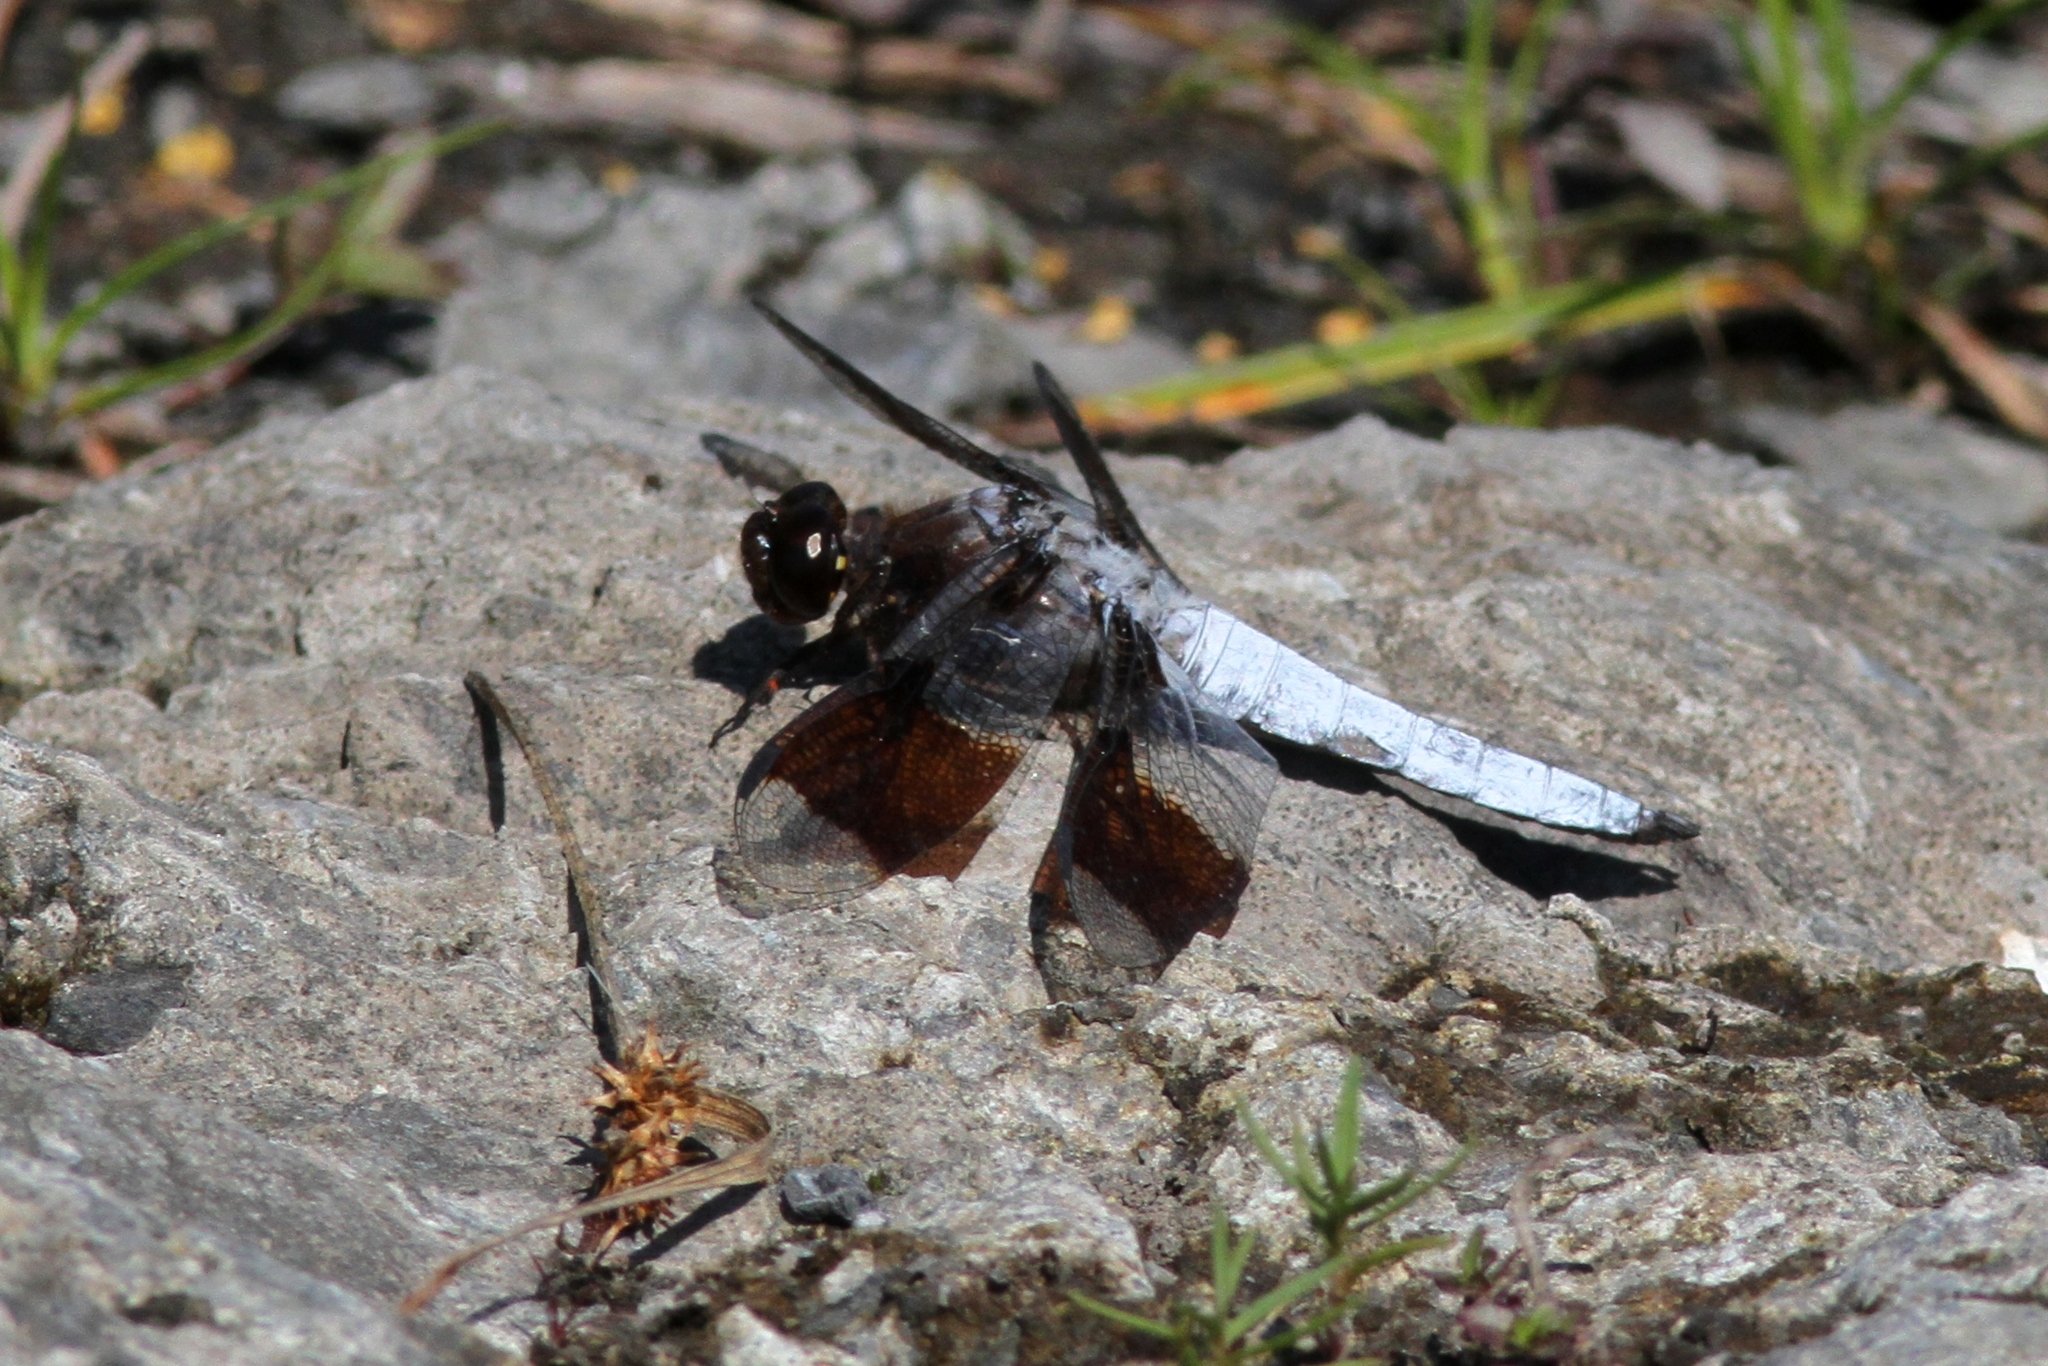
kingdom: Animalia
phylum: Arthropoda
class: Insecta
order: Odonata
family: Libellulidae
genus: Plathemis
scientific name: Plathemis lydia
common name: Common whitetail
